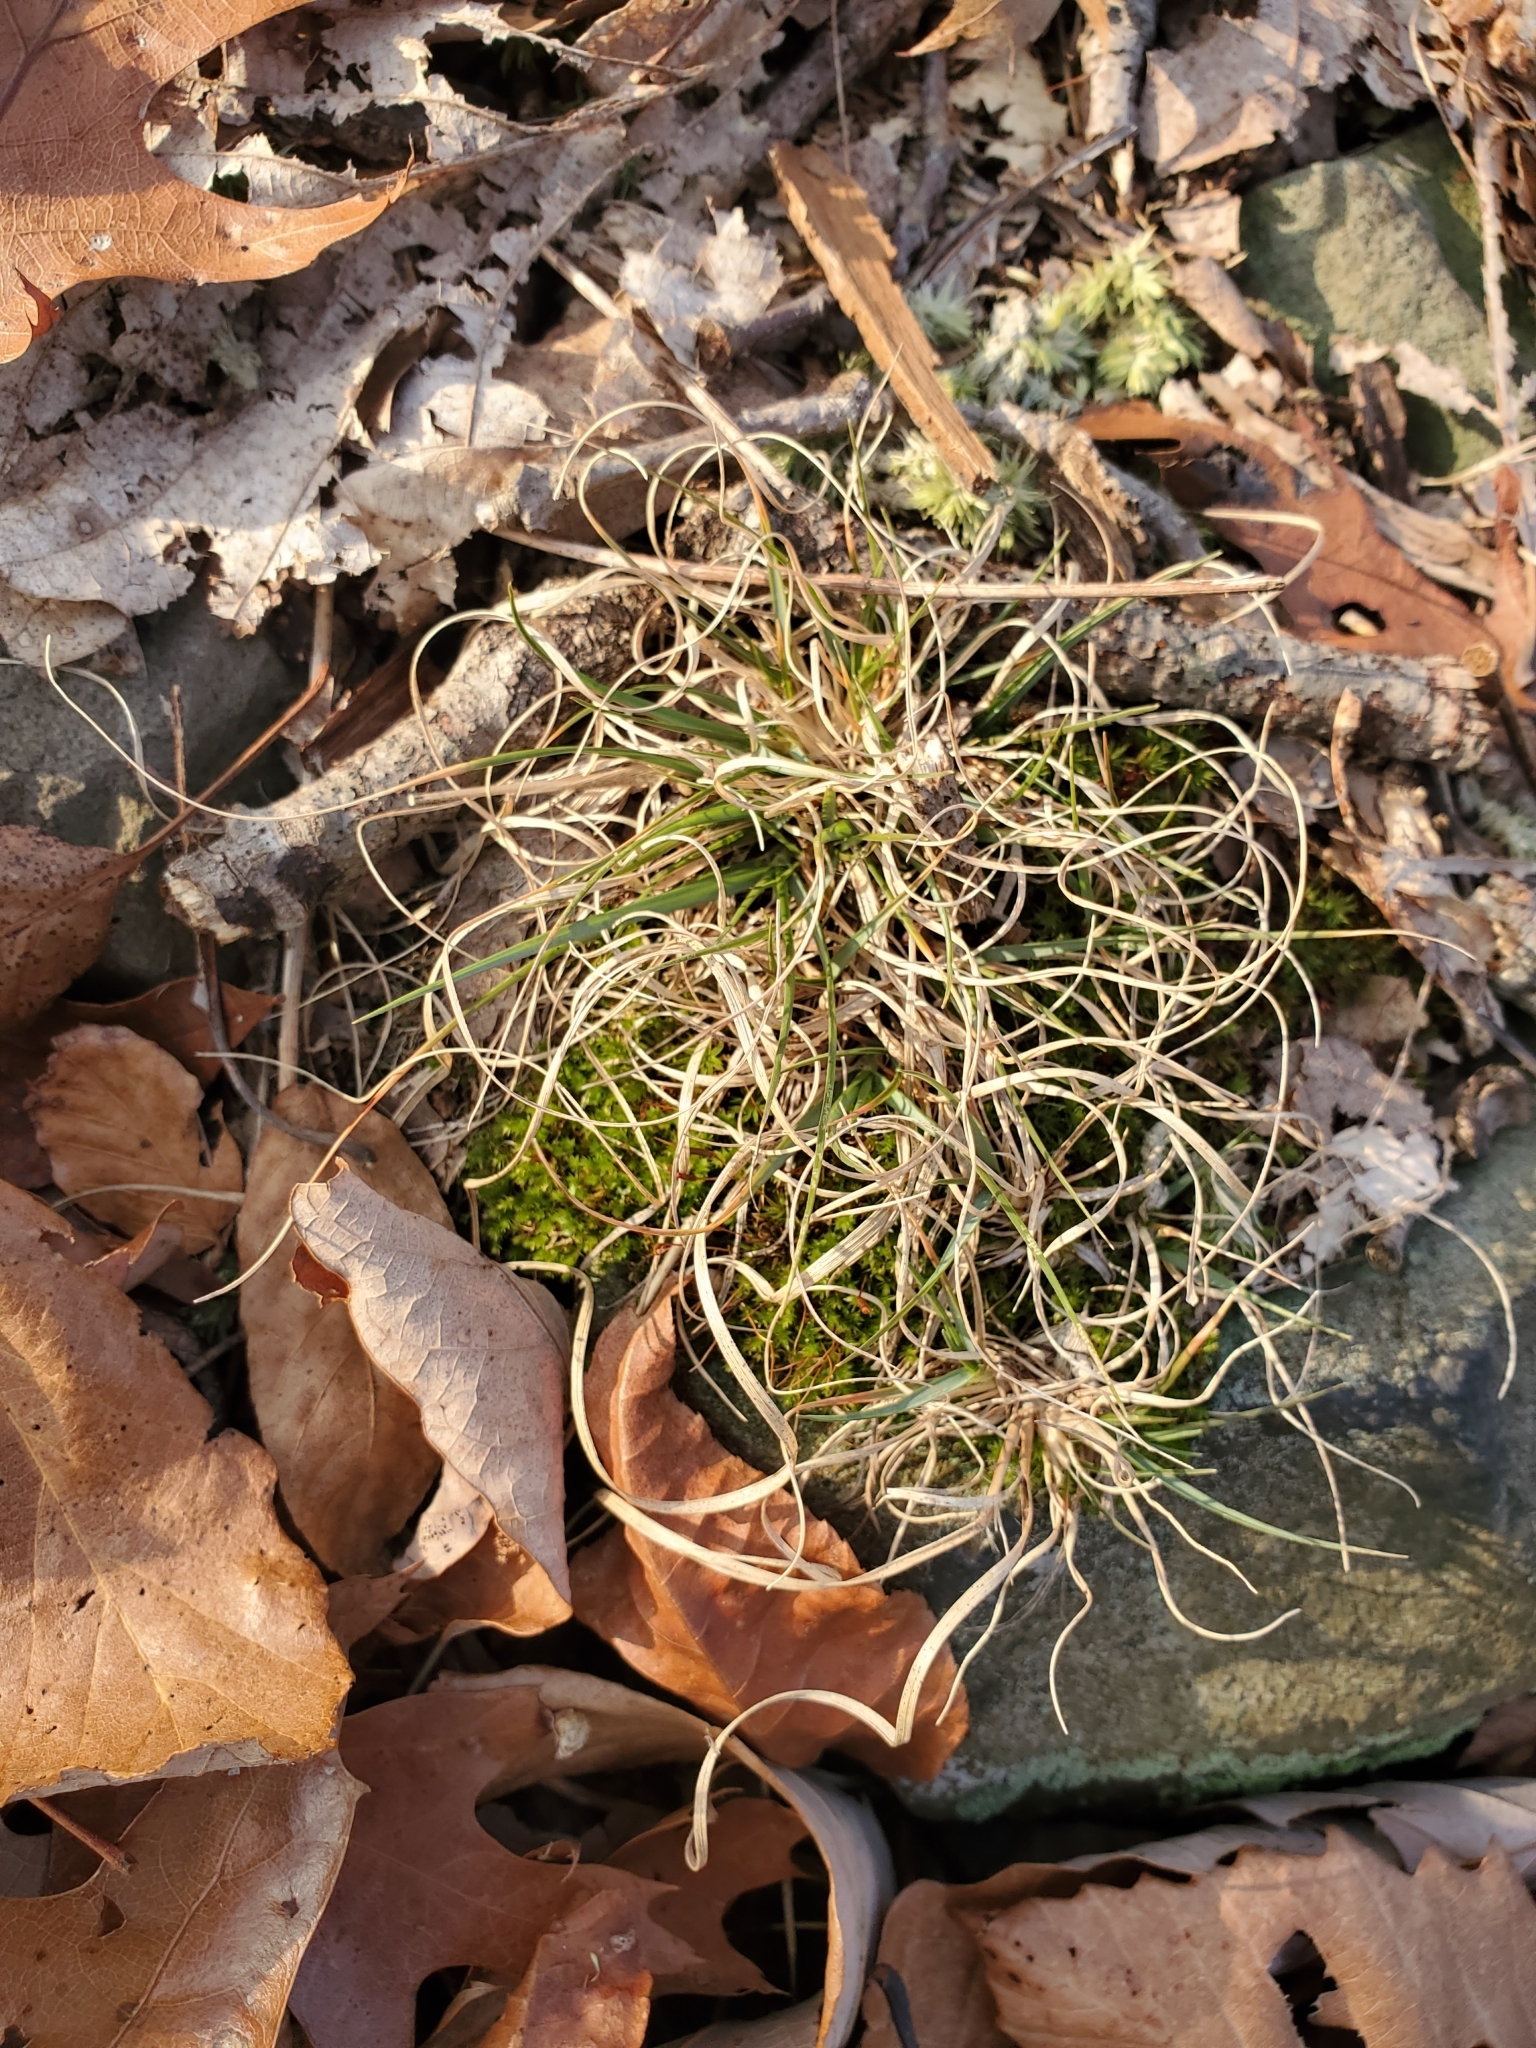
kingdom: Plantae
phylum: Tracheophyta
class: Liliopsida
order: Poales
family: Poaceae
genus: Danthonia
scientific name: Danthonia spicata
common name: Common wild oatgrass
